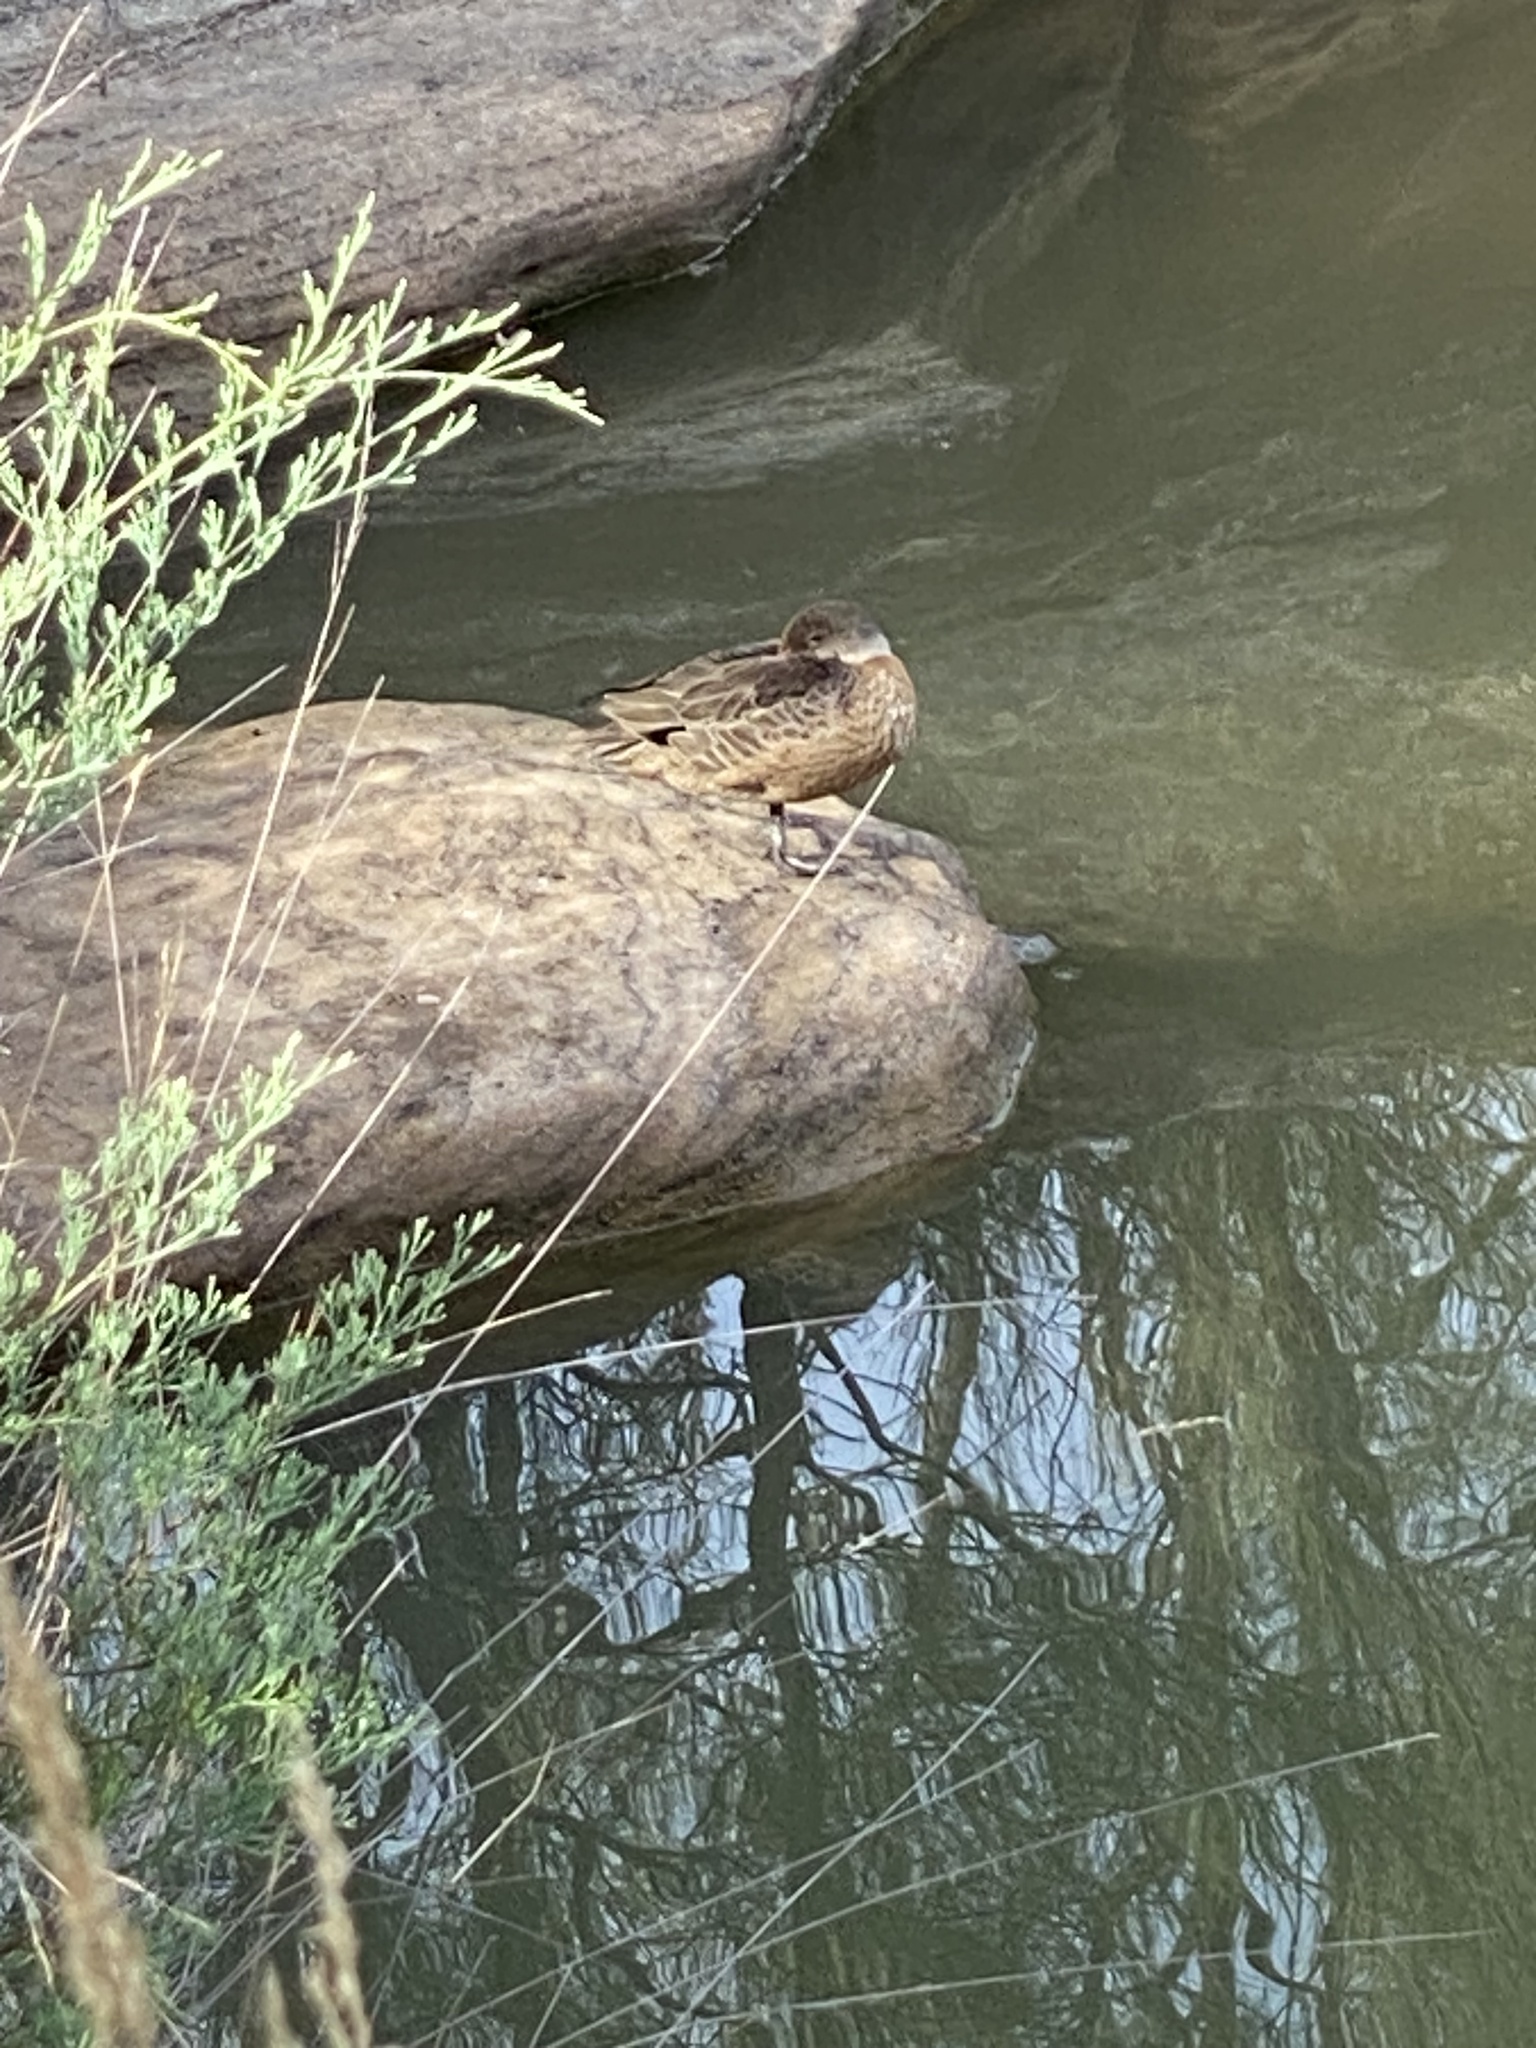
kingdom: Animalia
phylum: Chordata
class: Aves
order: Anseriformes
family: Anatidae
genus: Anas
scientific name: Anas gracilis
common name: Grey teal
